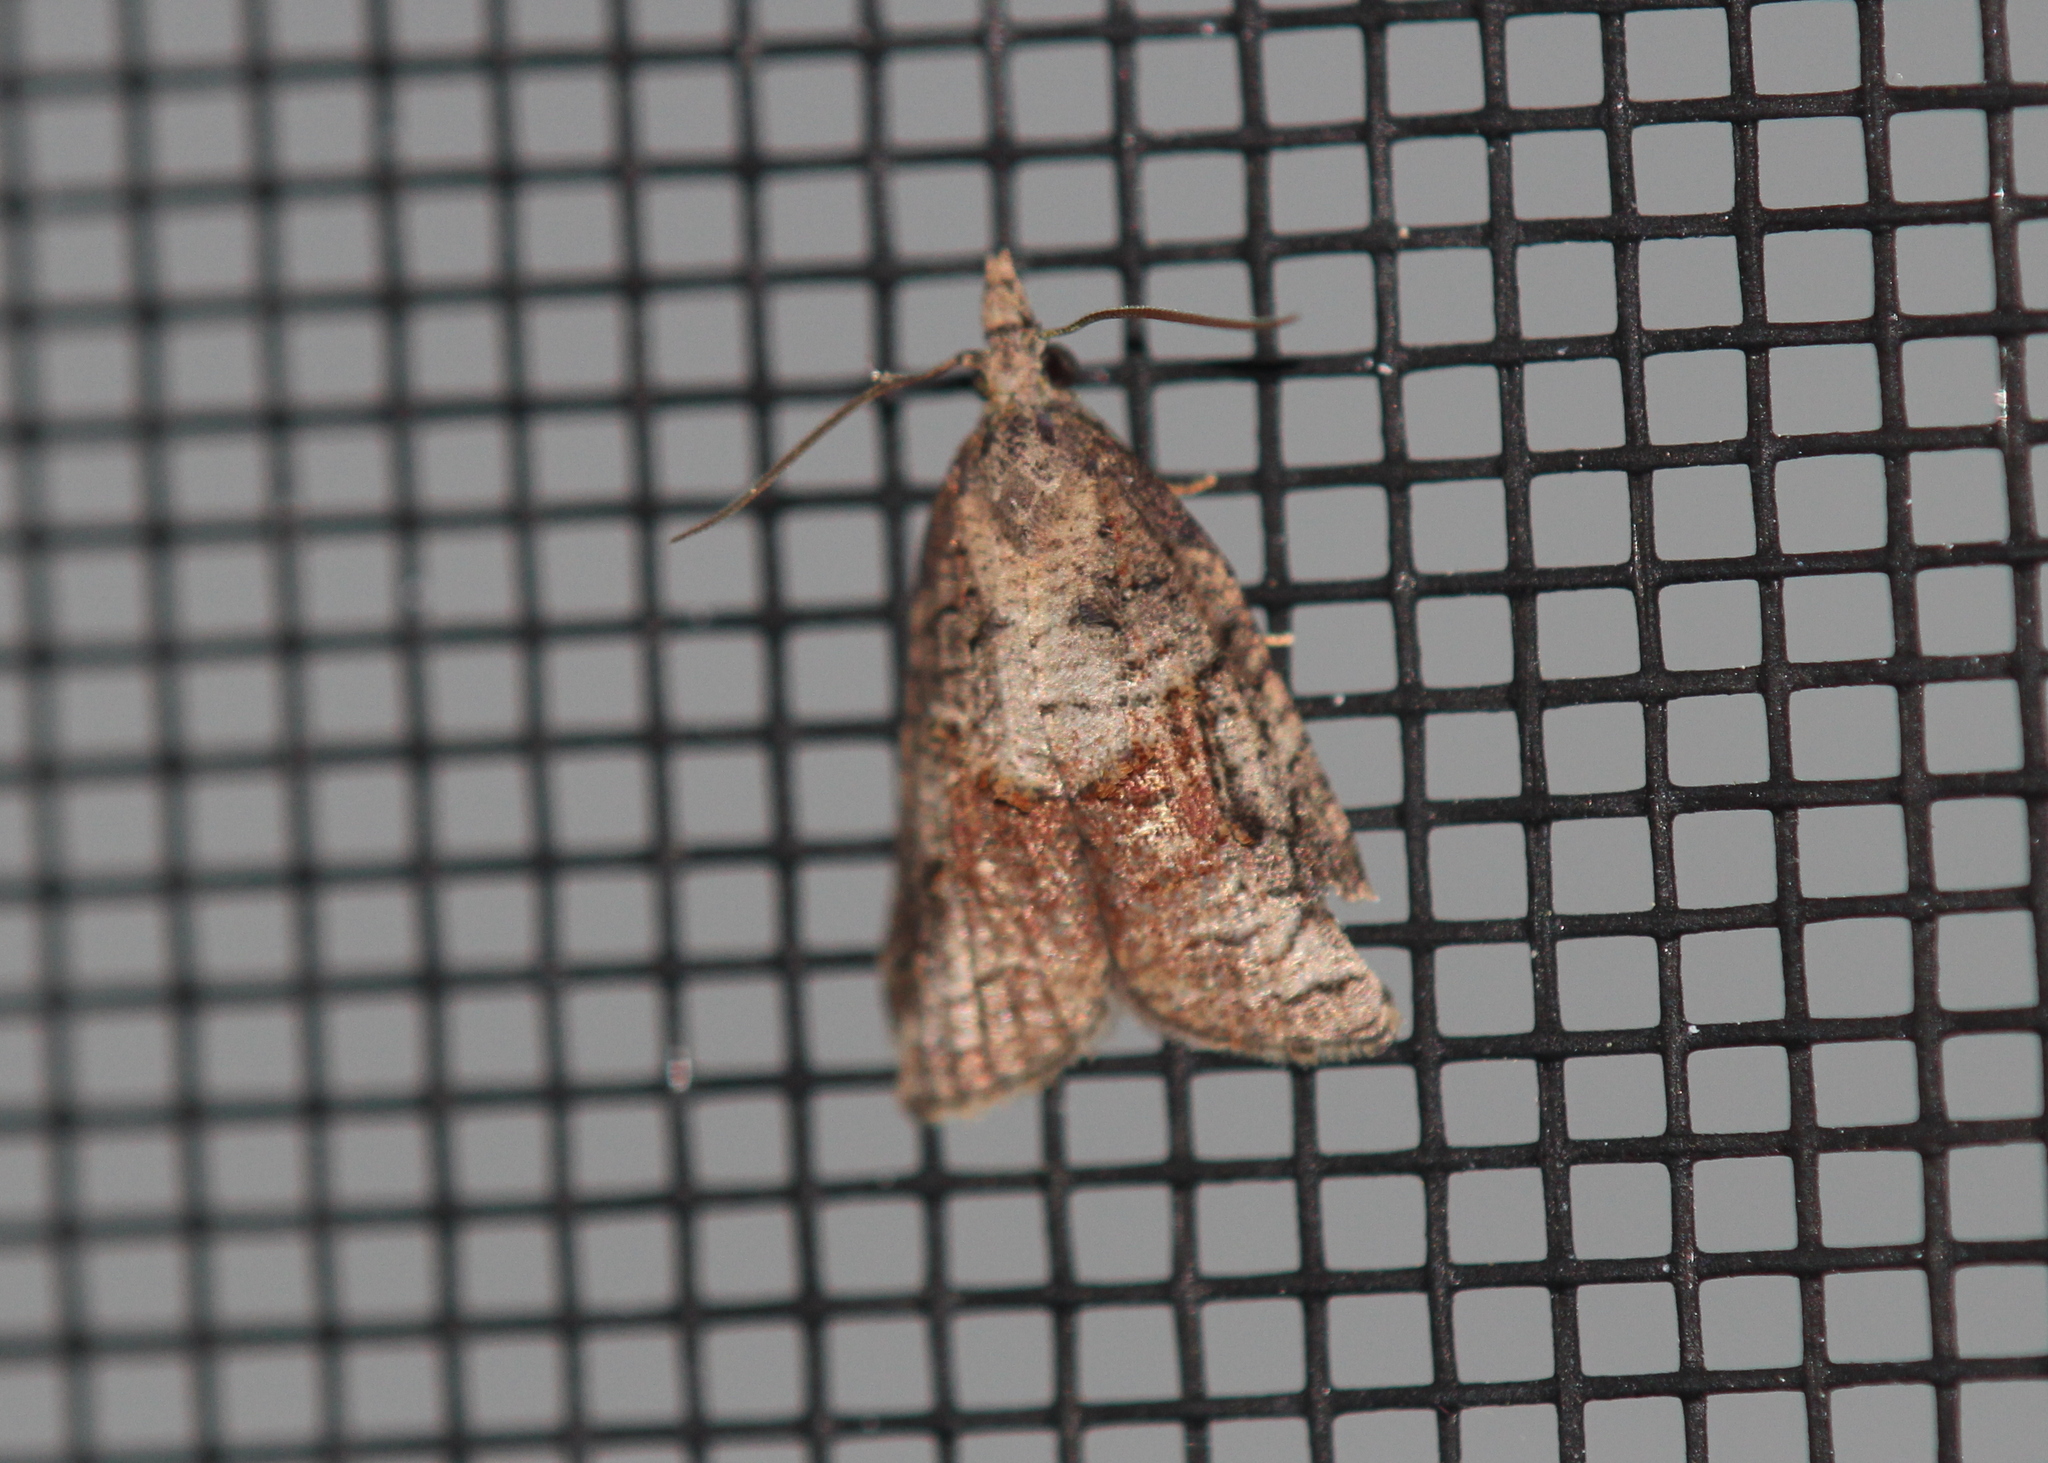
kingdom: Animalia
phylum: Arthropoda
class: Insecta
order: Lepidoptera
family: Tortricidae
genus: Platynota
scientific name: Platynota idaeusalis
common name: Tufted apple bud moth
